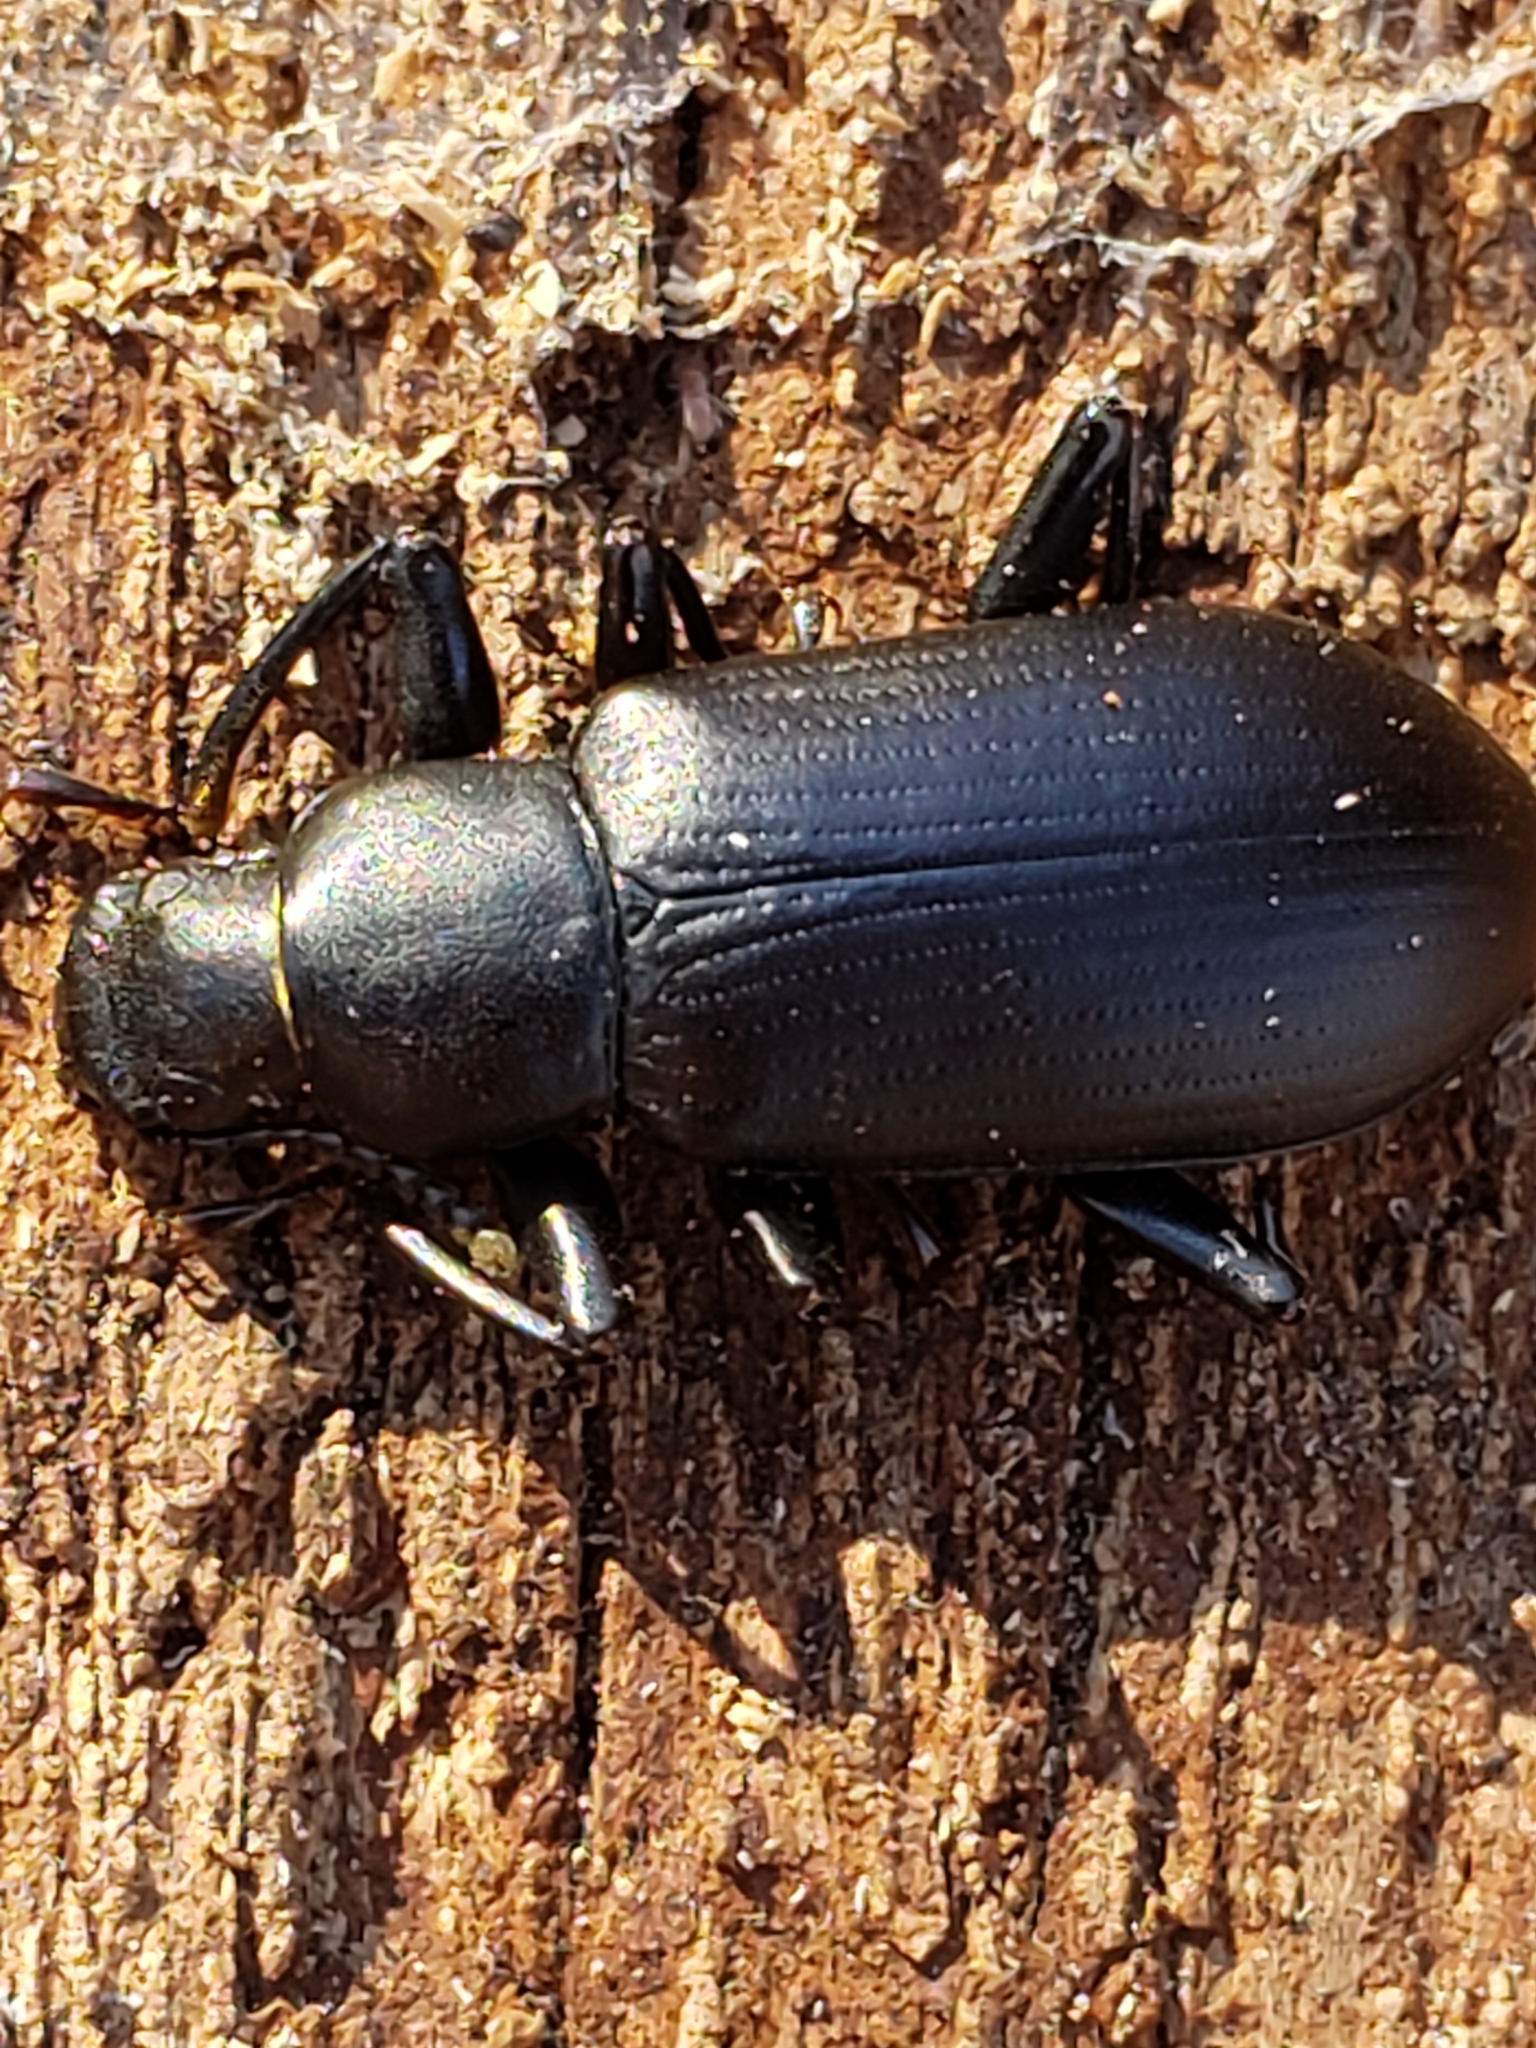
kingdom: Animalia
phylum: Arthropoda
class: Insecta
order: Coleoptera
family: Tenebrionidae
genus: Alobates
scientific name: Alobates
